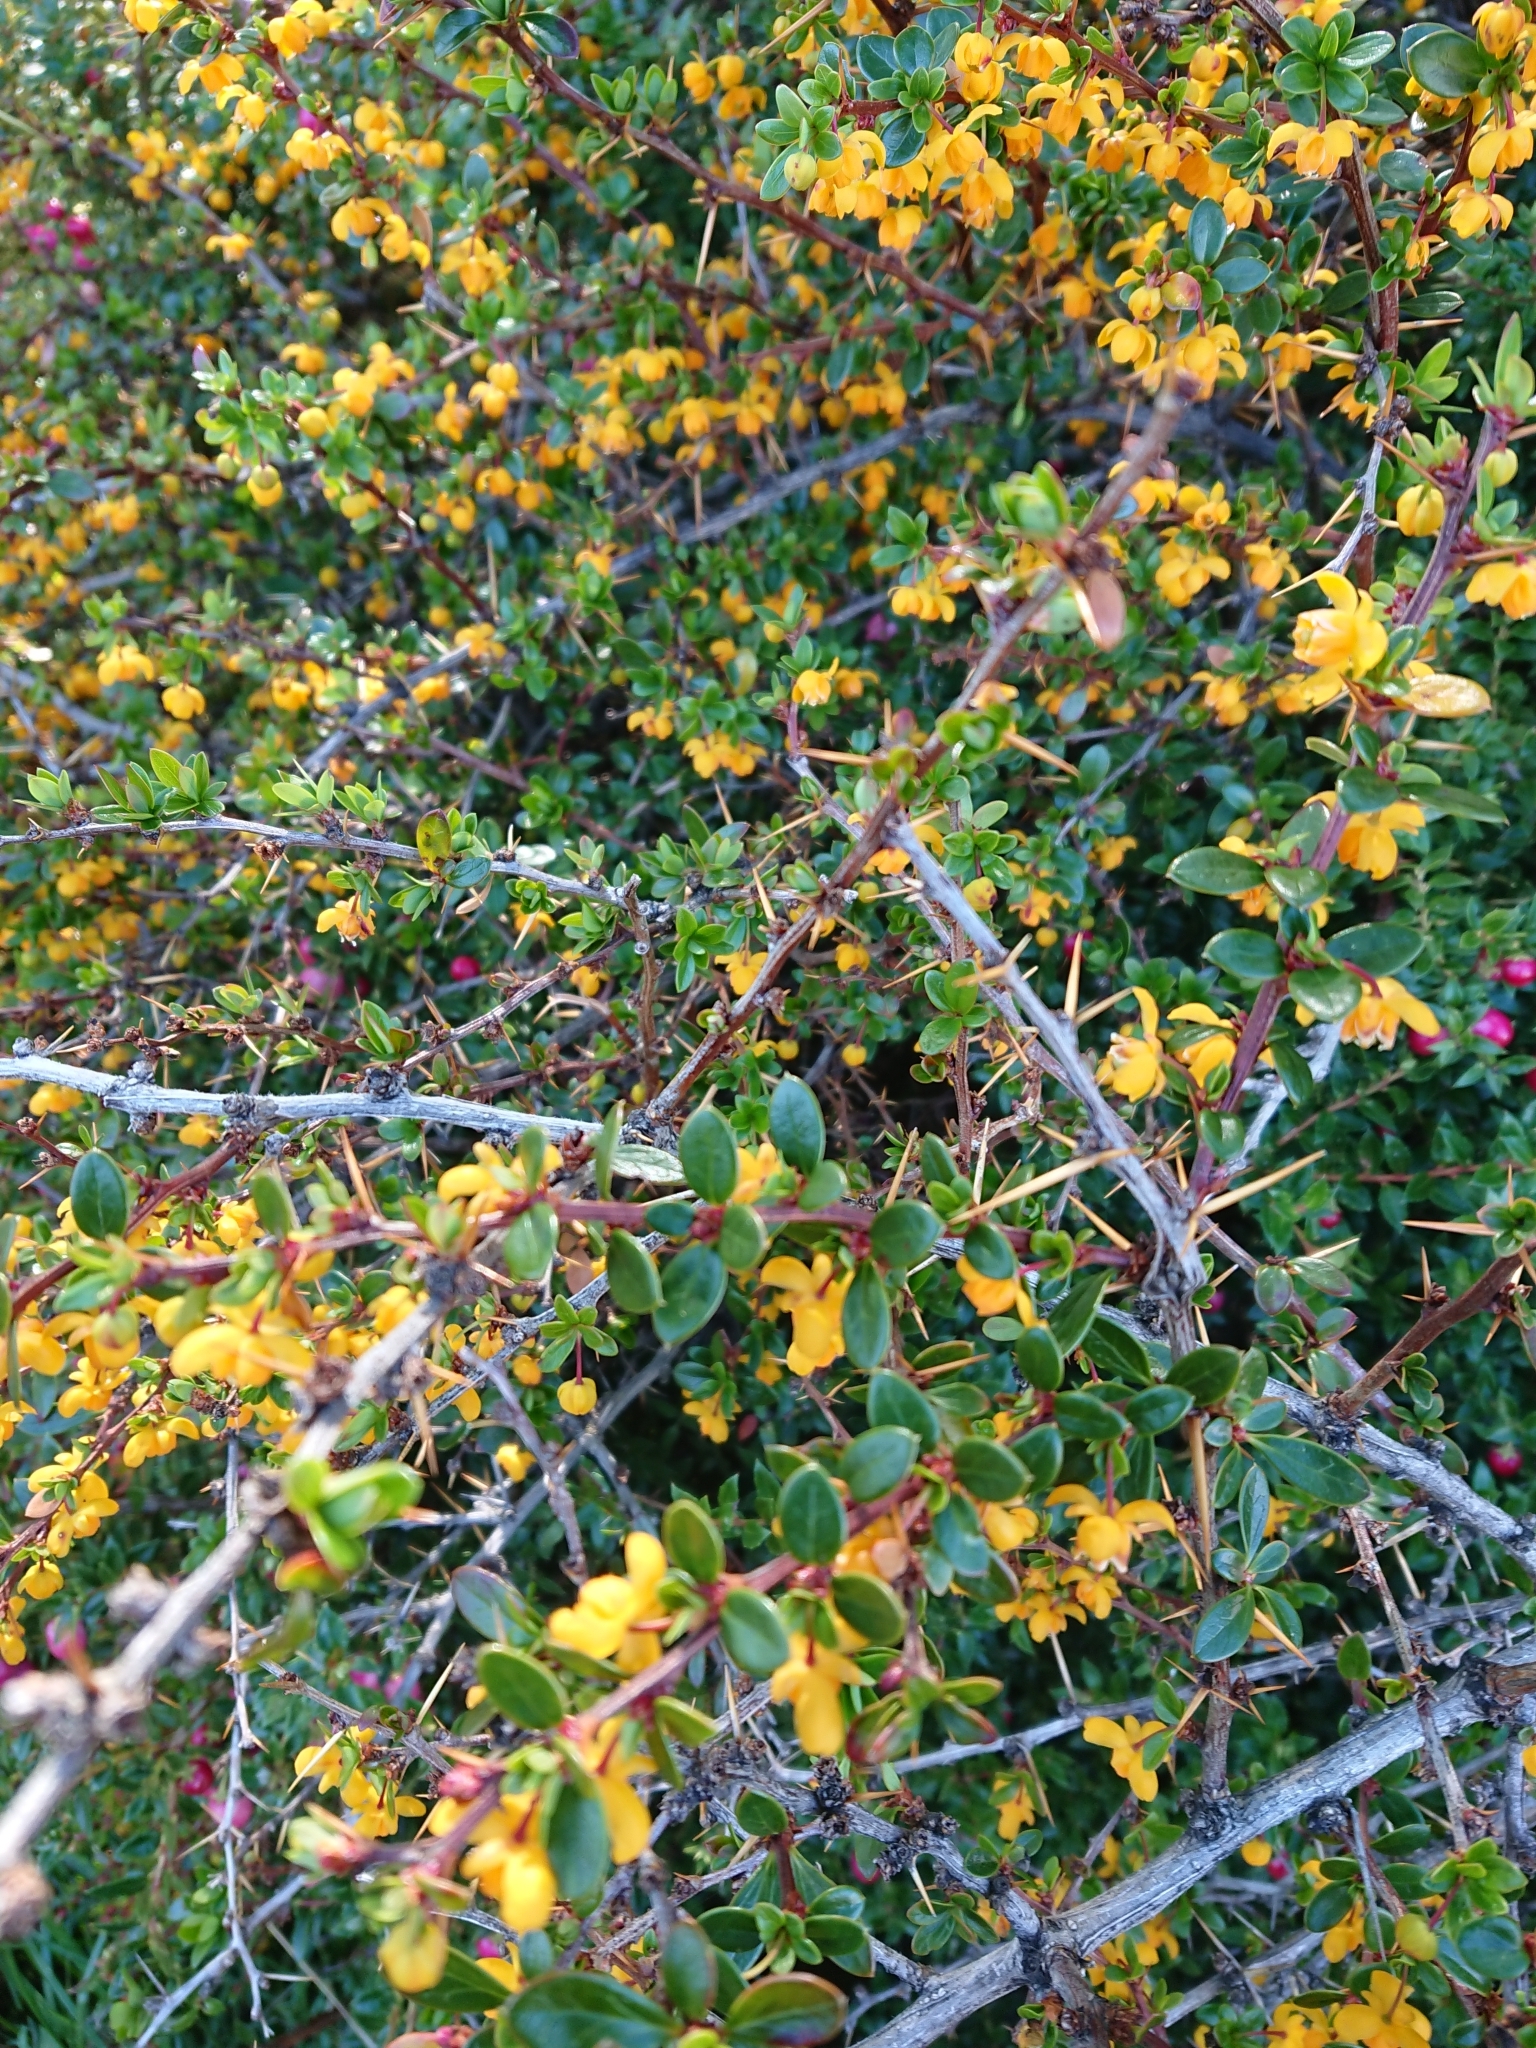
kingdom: Plantae
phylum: Tracheophyta
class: Magnoliopsida
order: Ranunculales
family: Berberidaceae
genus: Berberis
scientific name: Berberis microphylla
